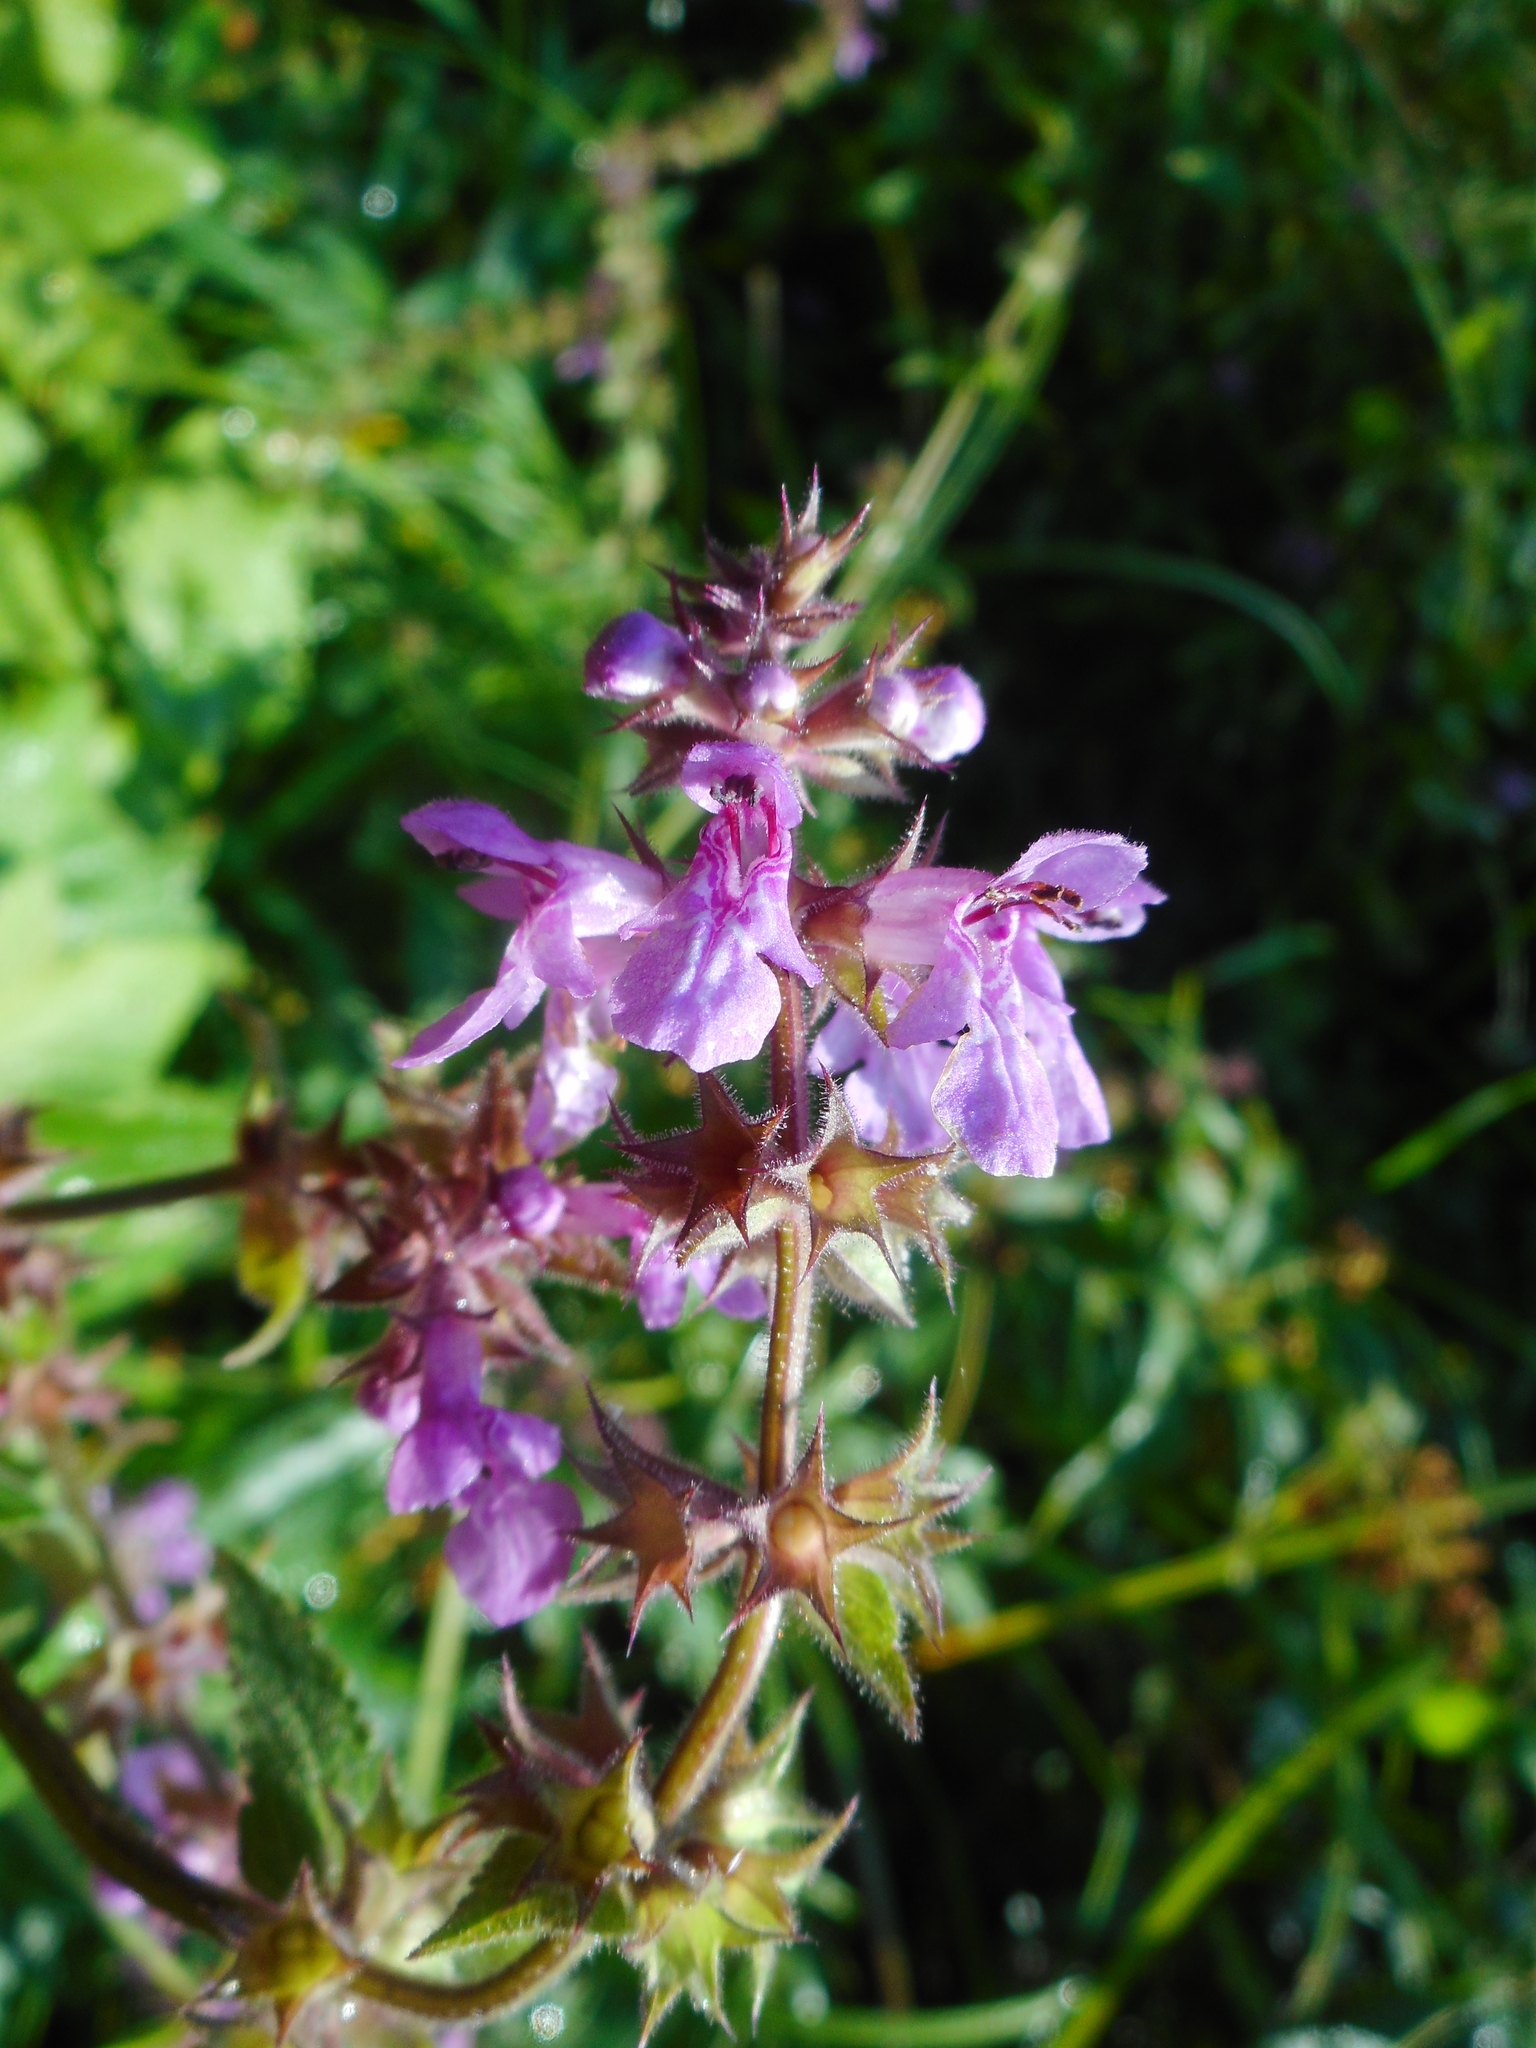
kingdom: Plantae
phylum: Tracheophyta
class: Magnoliopsida
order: Lamiales
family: Lamiaceae
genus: Stachys
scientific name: Stachys palustris
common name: Marsh woundwort
